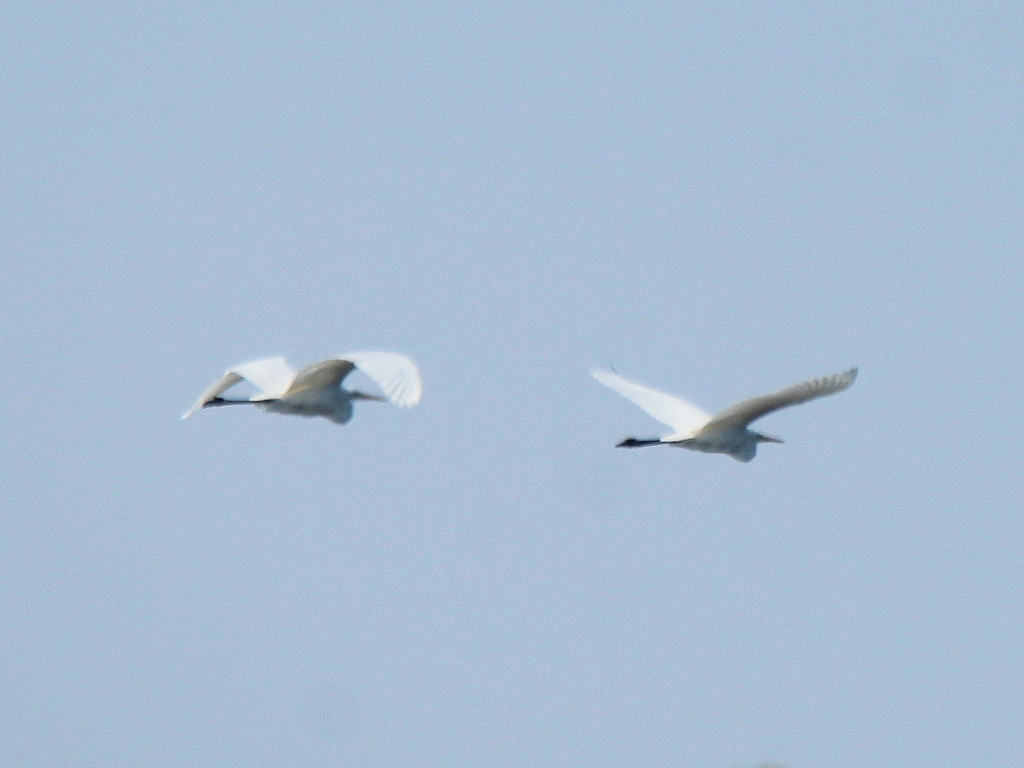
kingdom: Animalia
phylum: Chordata
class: Aves
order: Pelecaniformes
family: Ardeidae
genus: Ardea
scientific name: Ardea alba
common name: Great egret
